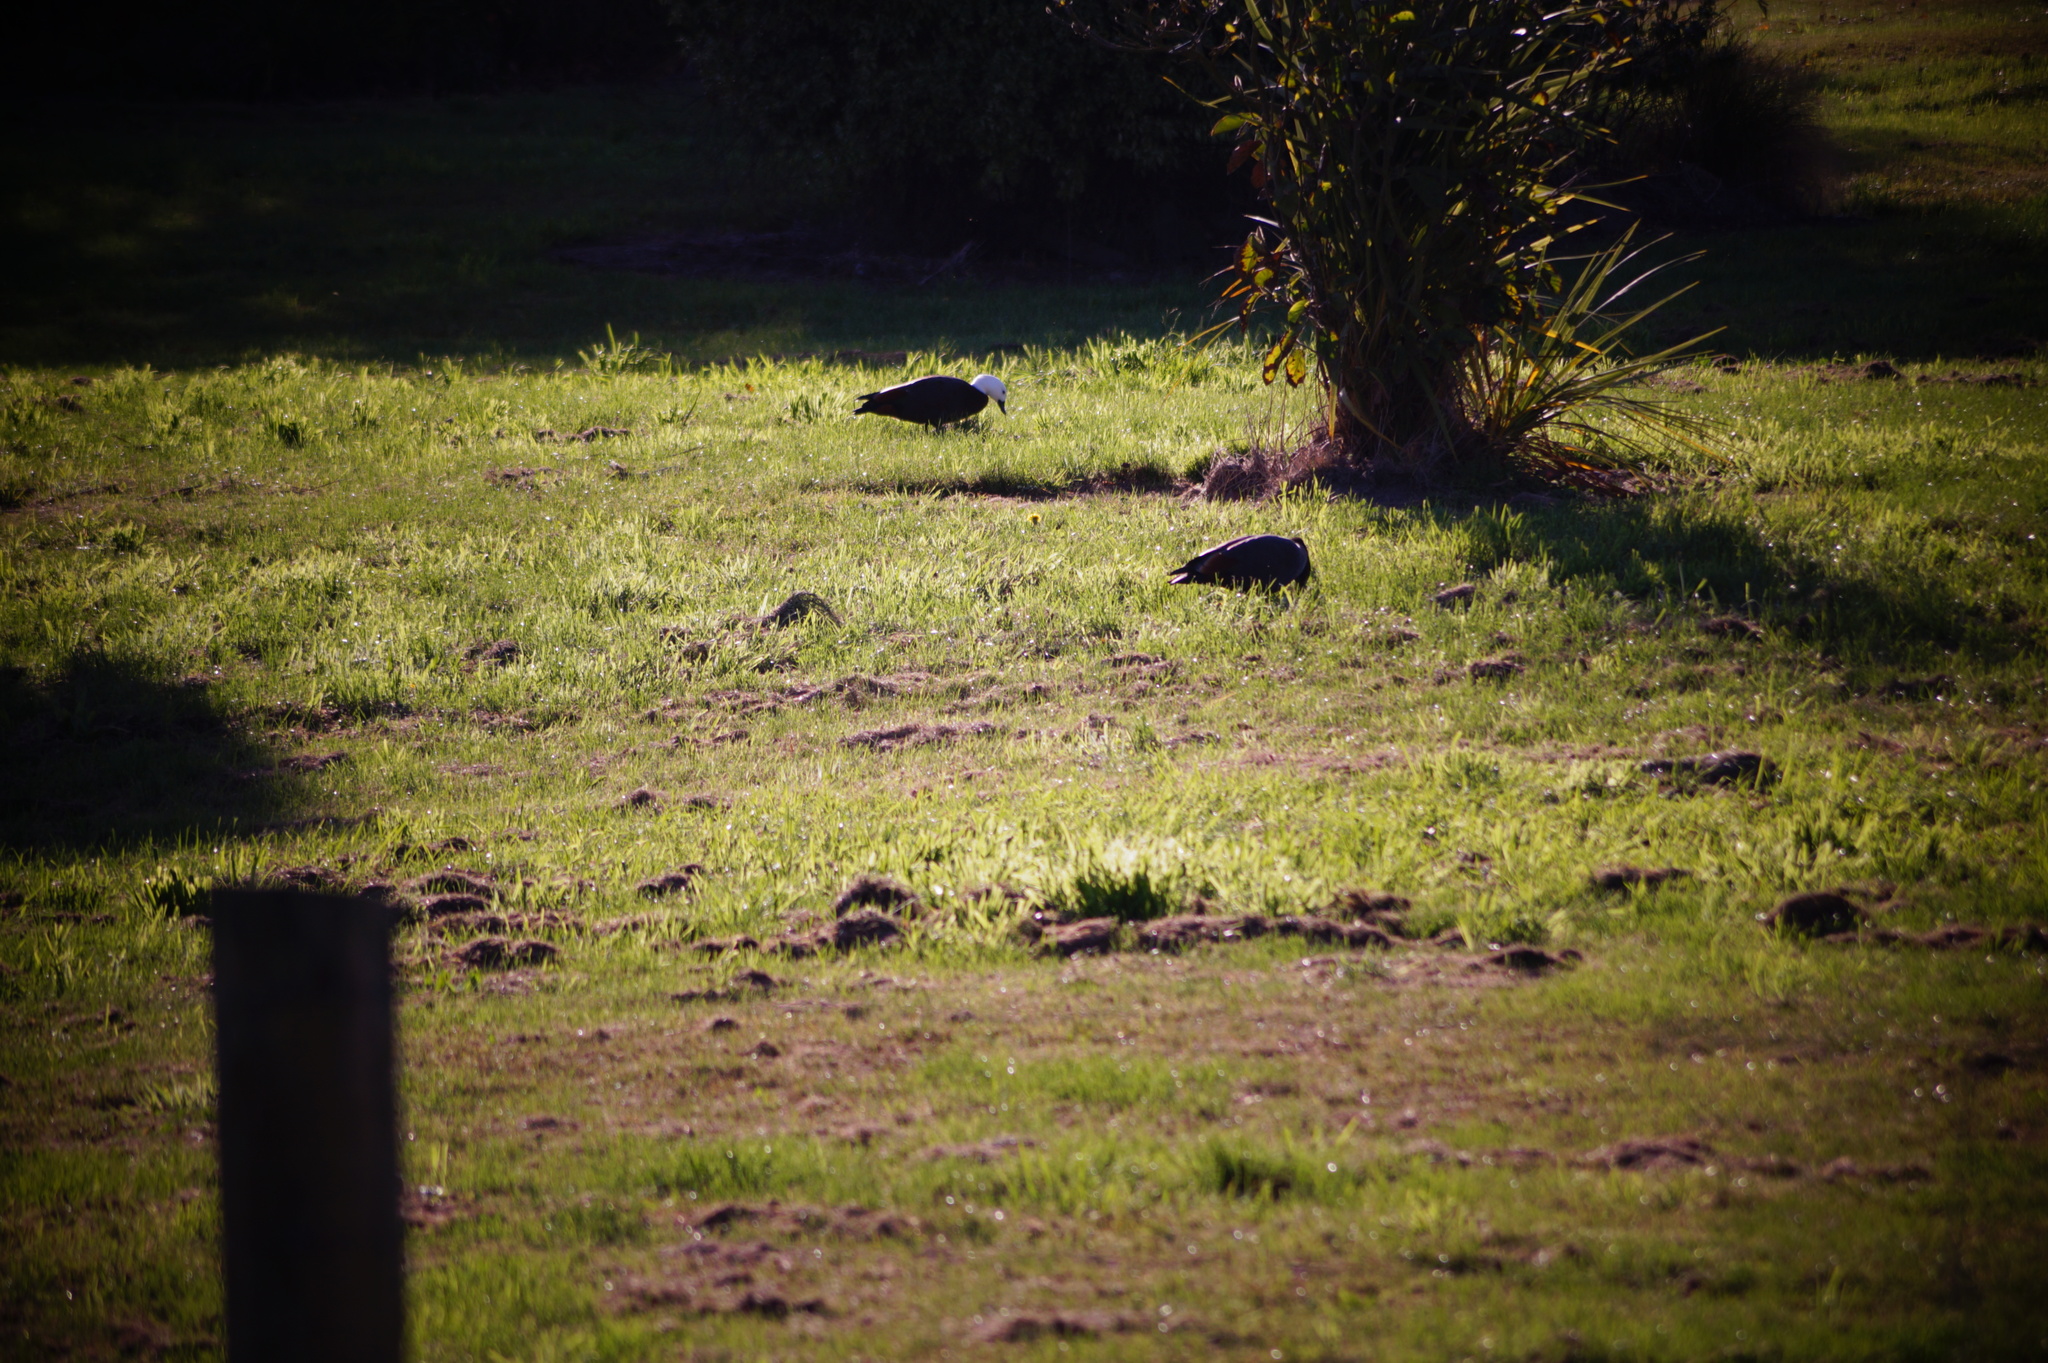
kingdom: Animalia
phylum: Chordata
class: Aves
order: Anseriformes
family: Anatidae
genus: Tadorna
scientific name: Tadorna variegata
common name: Paradise shelduck
